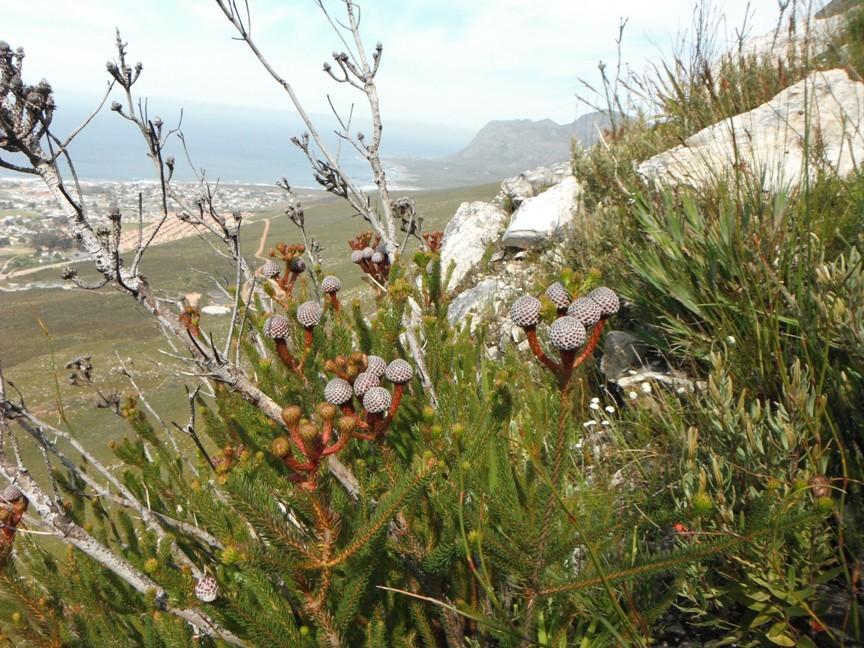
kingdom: Plantae
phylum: Tracheophyta
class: Magnoliopsida
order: Bruniales
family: Bruniaceae
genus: Berzelia
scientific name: Berzelia stokoei
